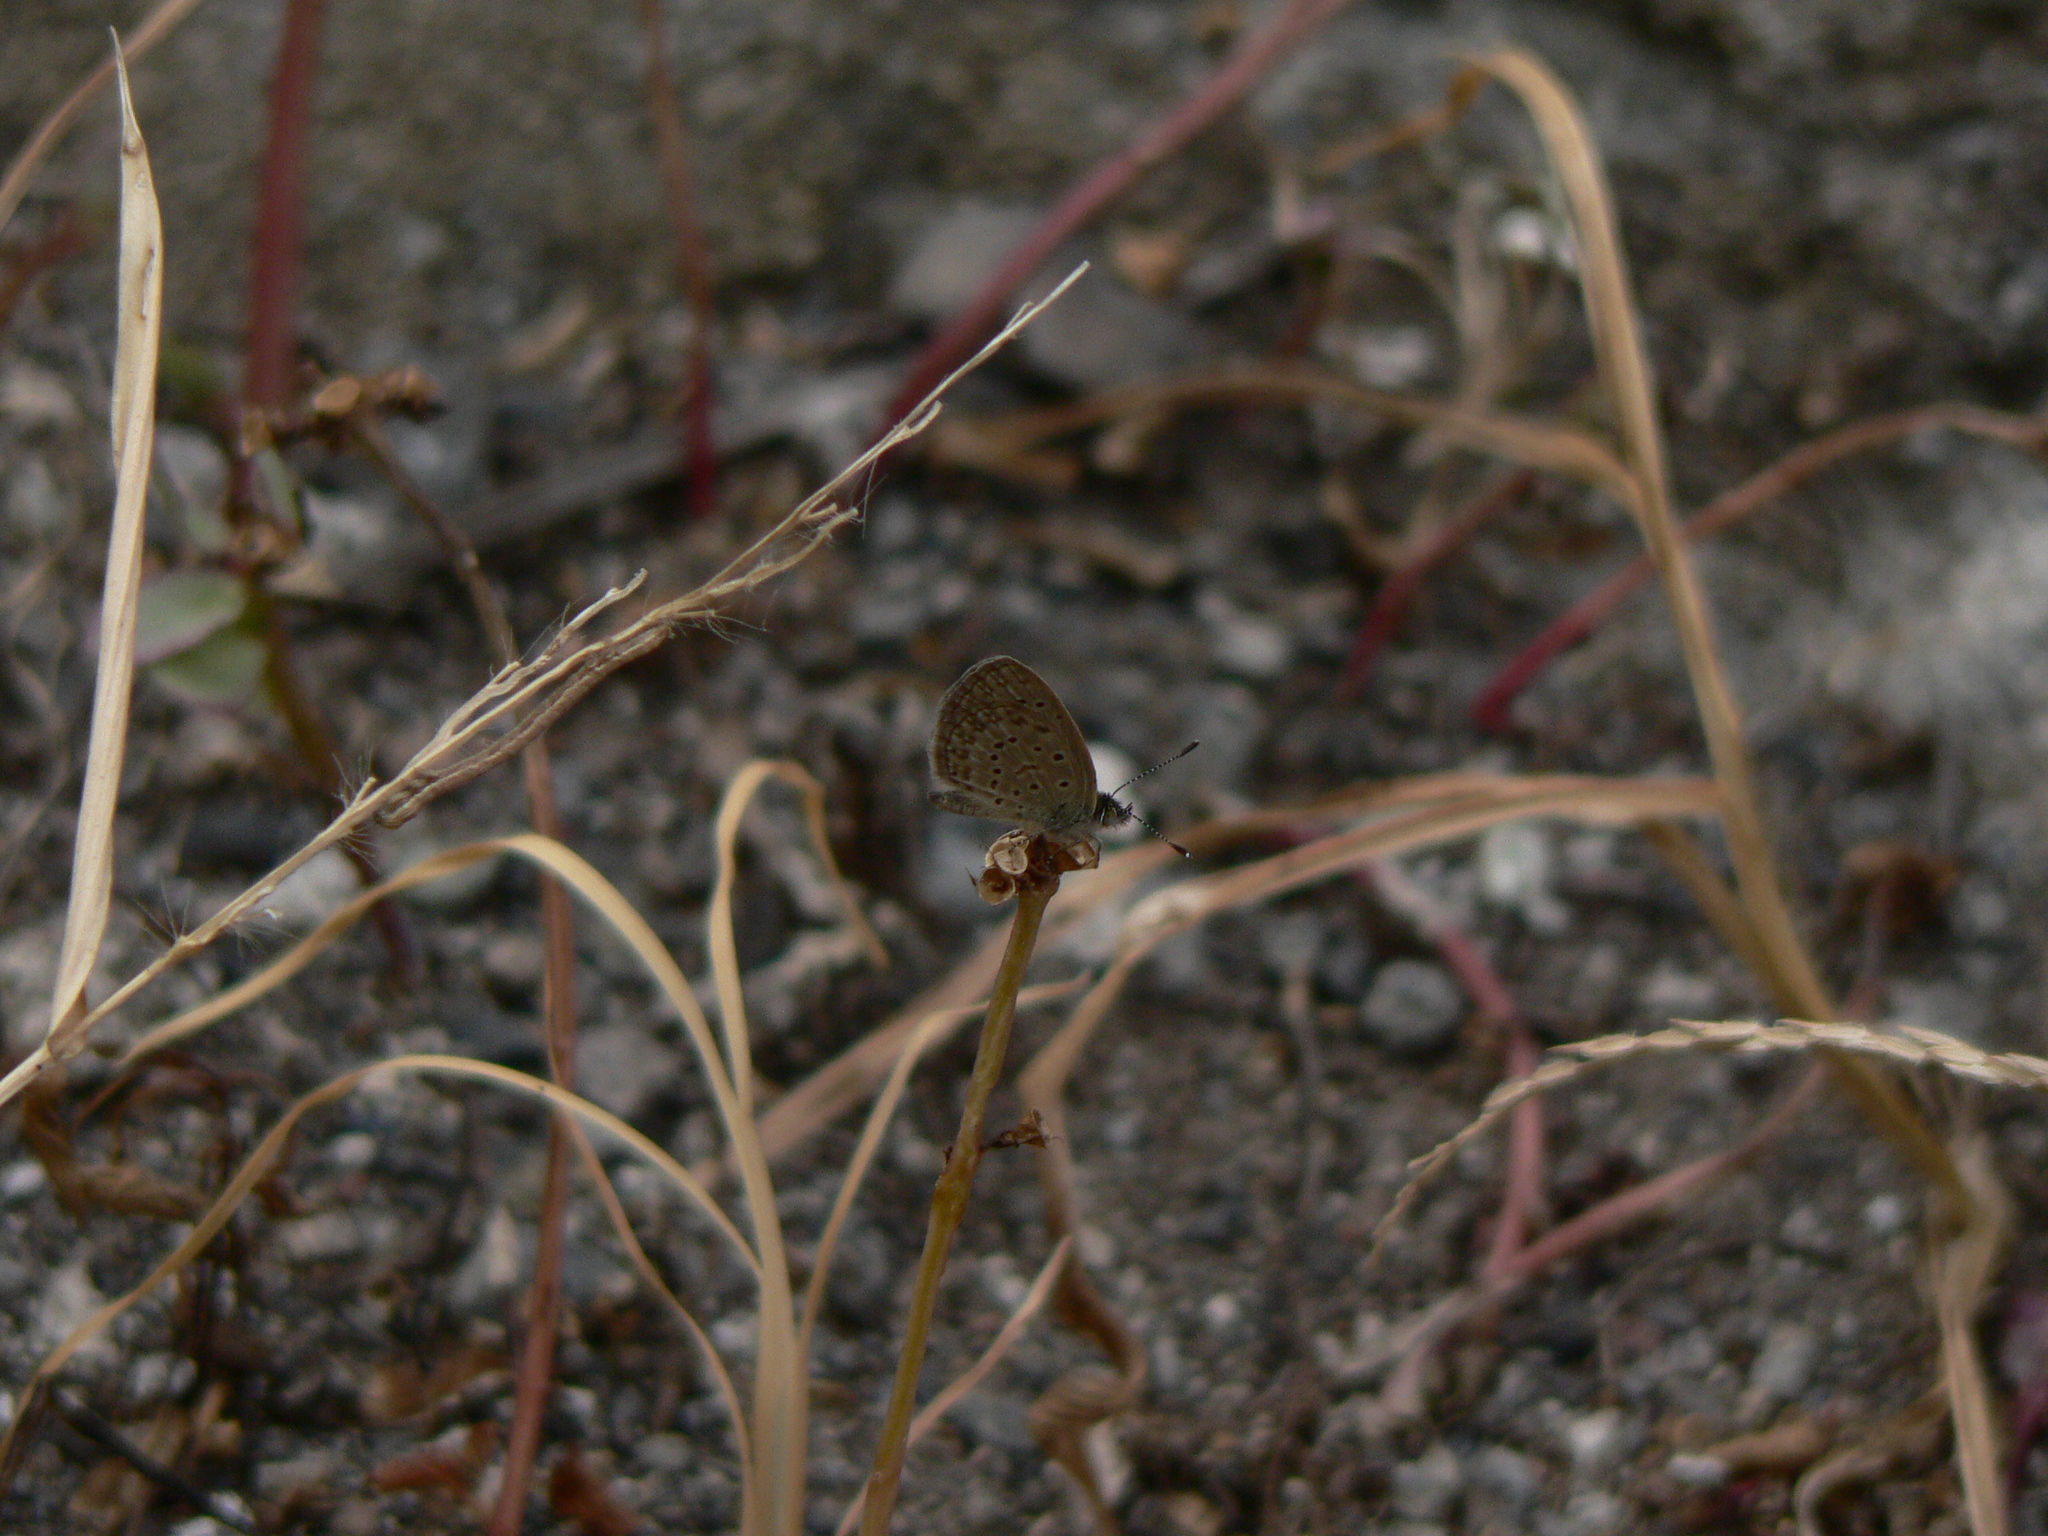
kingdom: Animalia
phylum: Arthropoda
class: Insecta
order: Lepidoptera
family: Lycaenidae
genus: Zizeeria
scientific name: Zizeeria knysna
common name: African grass blue
